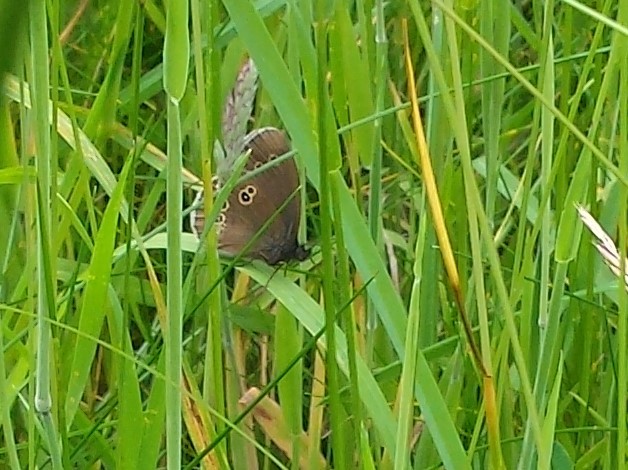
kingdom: Animalia
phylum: Arthropoda
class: Insecta
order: Lepidoptera
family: Nymphalidae
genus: Aphantopus
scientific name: Aphantopus hyperantus
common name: Ringlet
